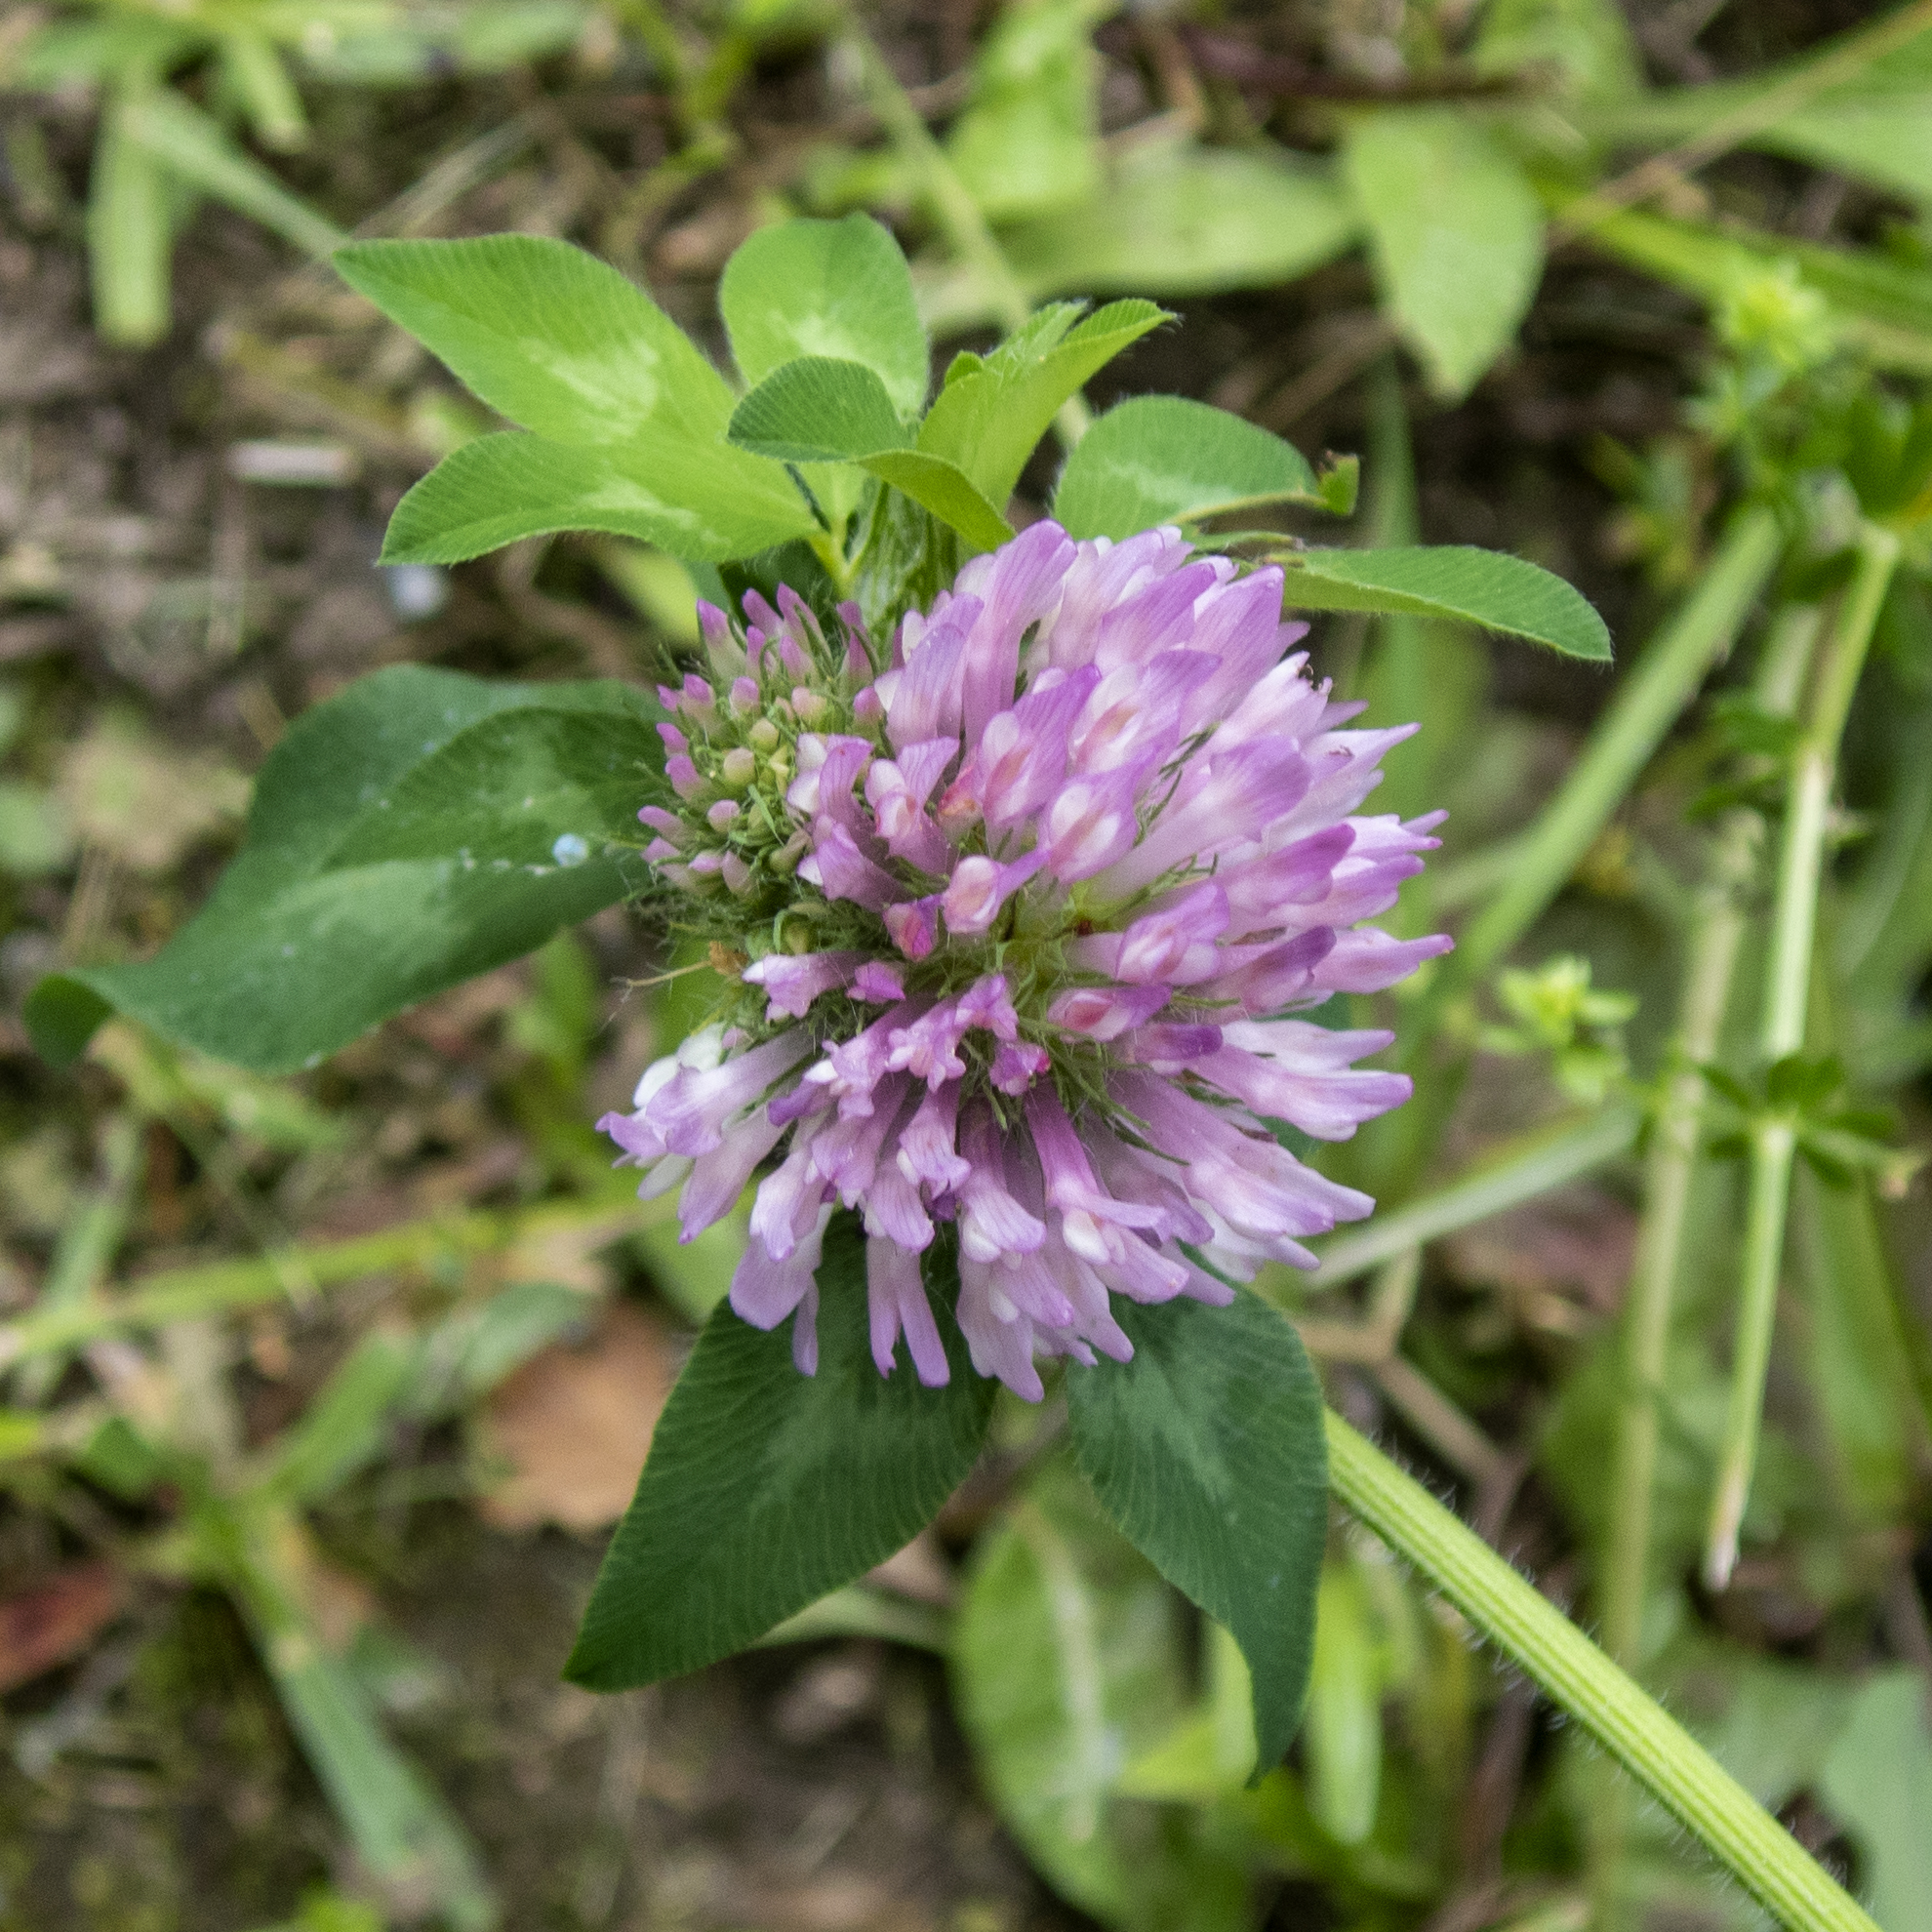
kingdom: Plantae
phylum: Tracheophyta
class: Magnoliopsida
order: Fabales
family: Fabaceae
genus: Trifolium
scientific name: Trifolium pratense
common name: Red clover
